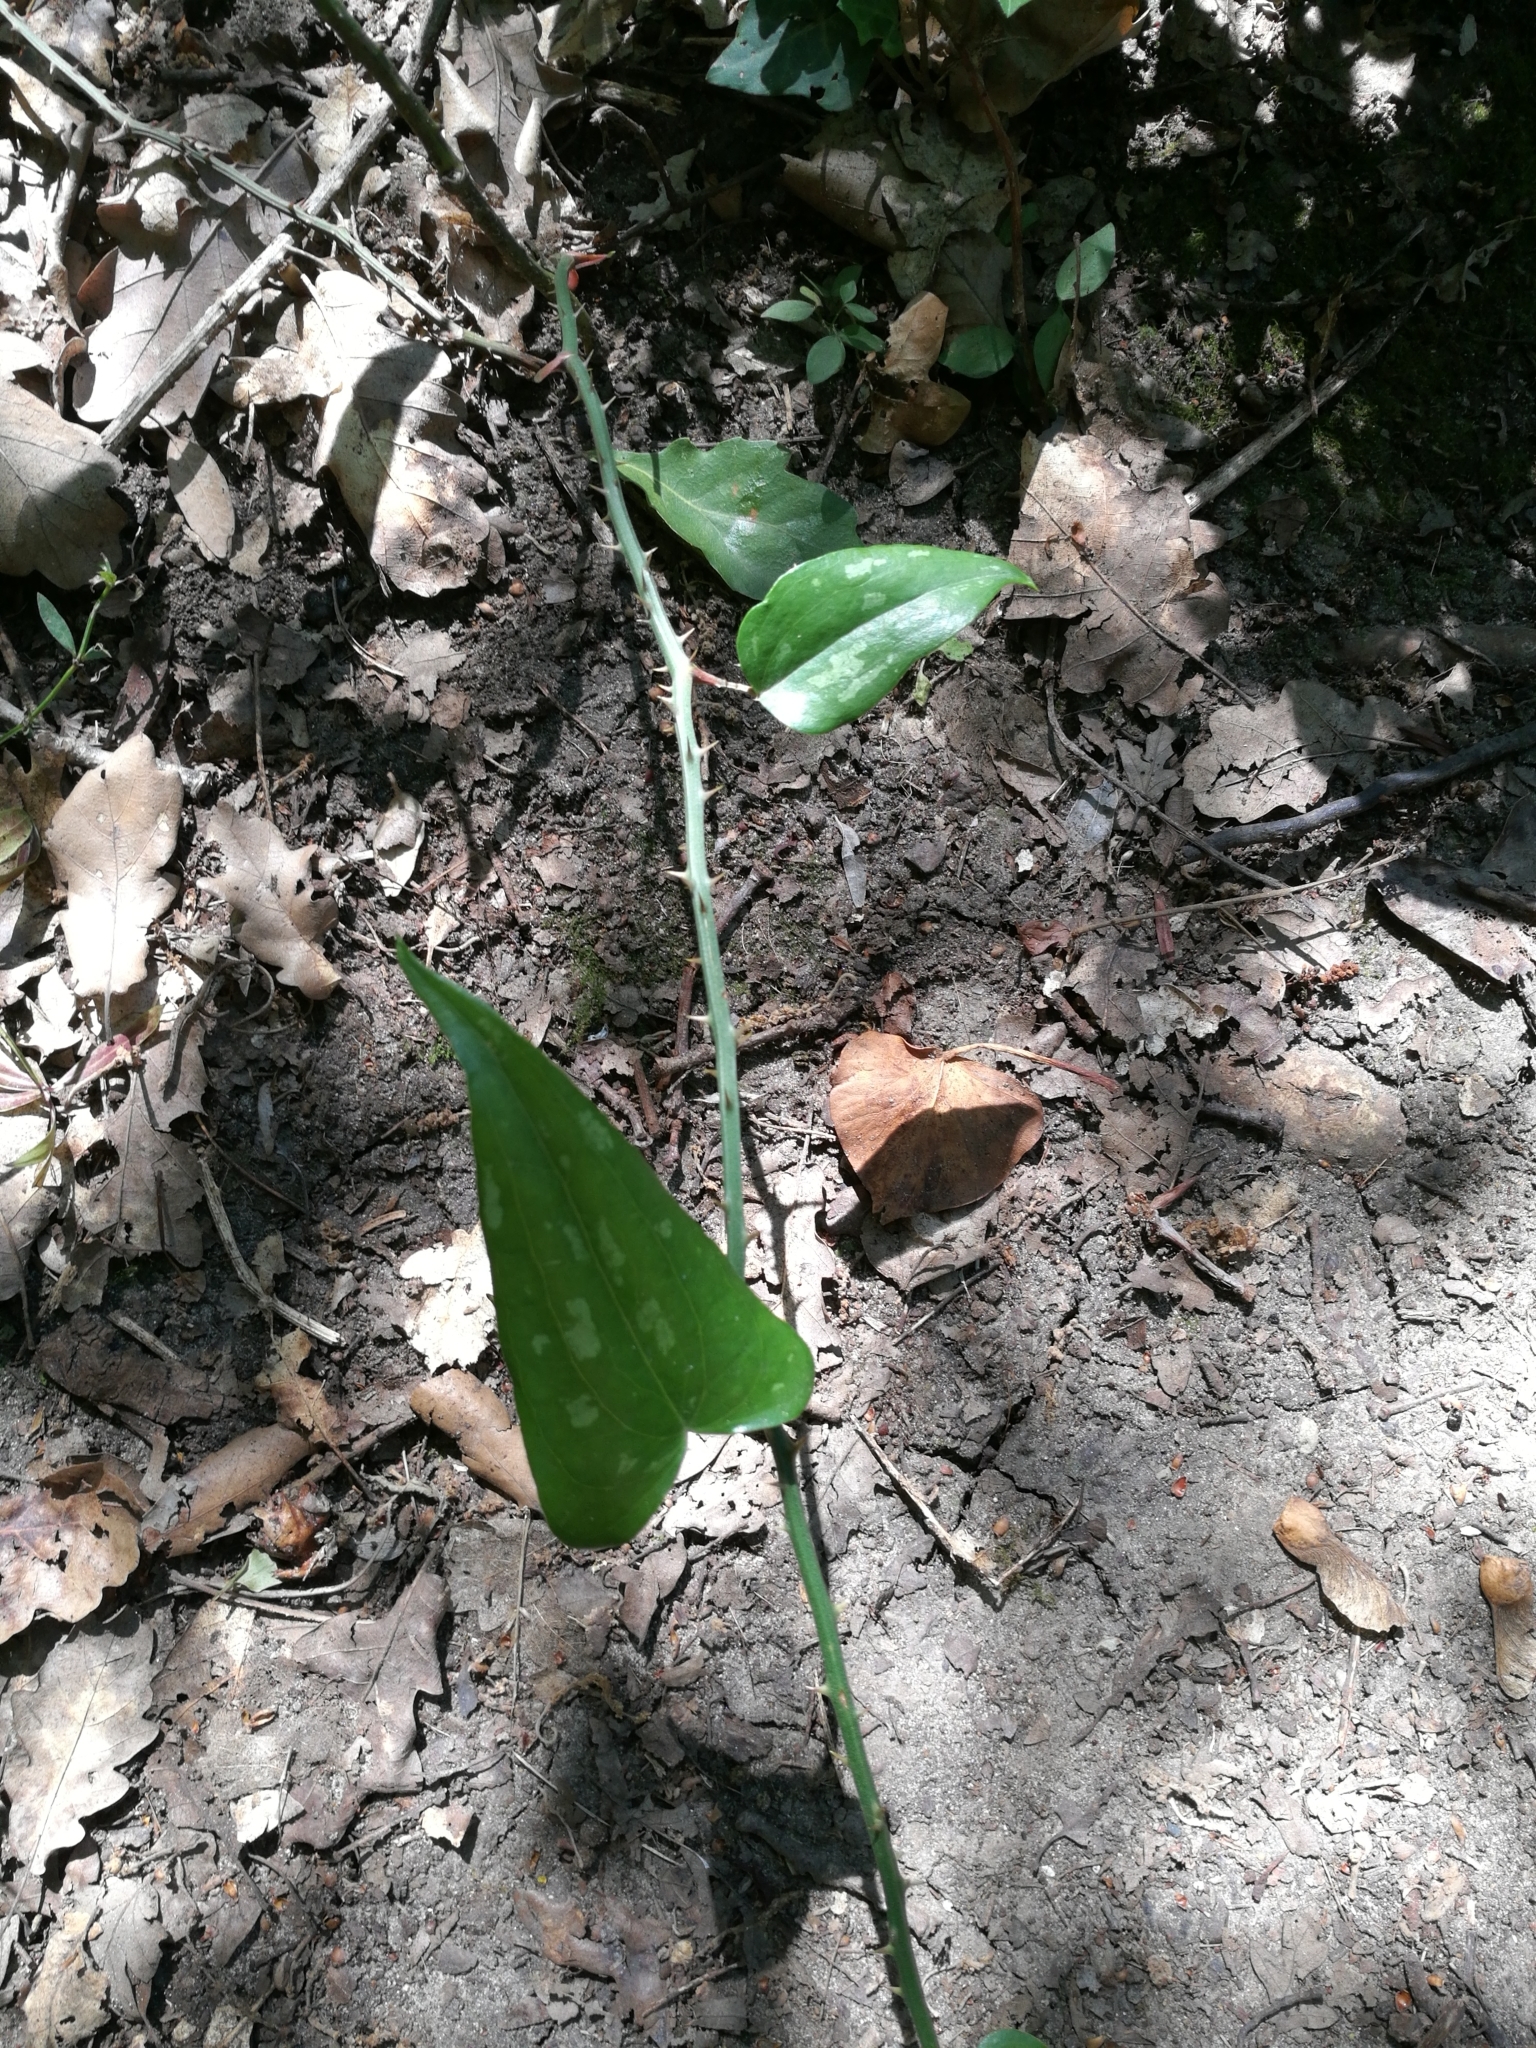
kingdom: Plantae
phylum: Tracheophyta
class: Liliopsida
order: Liliales
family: Smilacaceae
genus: Smilax
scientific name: Smilax aspera
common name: Common smilax
